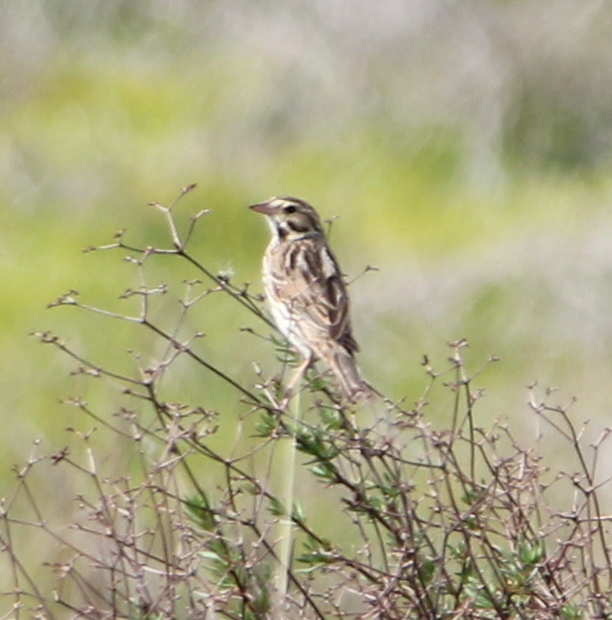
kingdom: Animalia
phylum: Chordata
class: Aves
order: Passeriformes
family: Passerellidae
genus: Passerculus
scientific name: Passerculus sandwichensis
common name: Savannah sparrow
